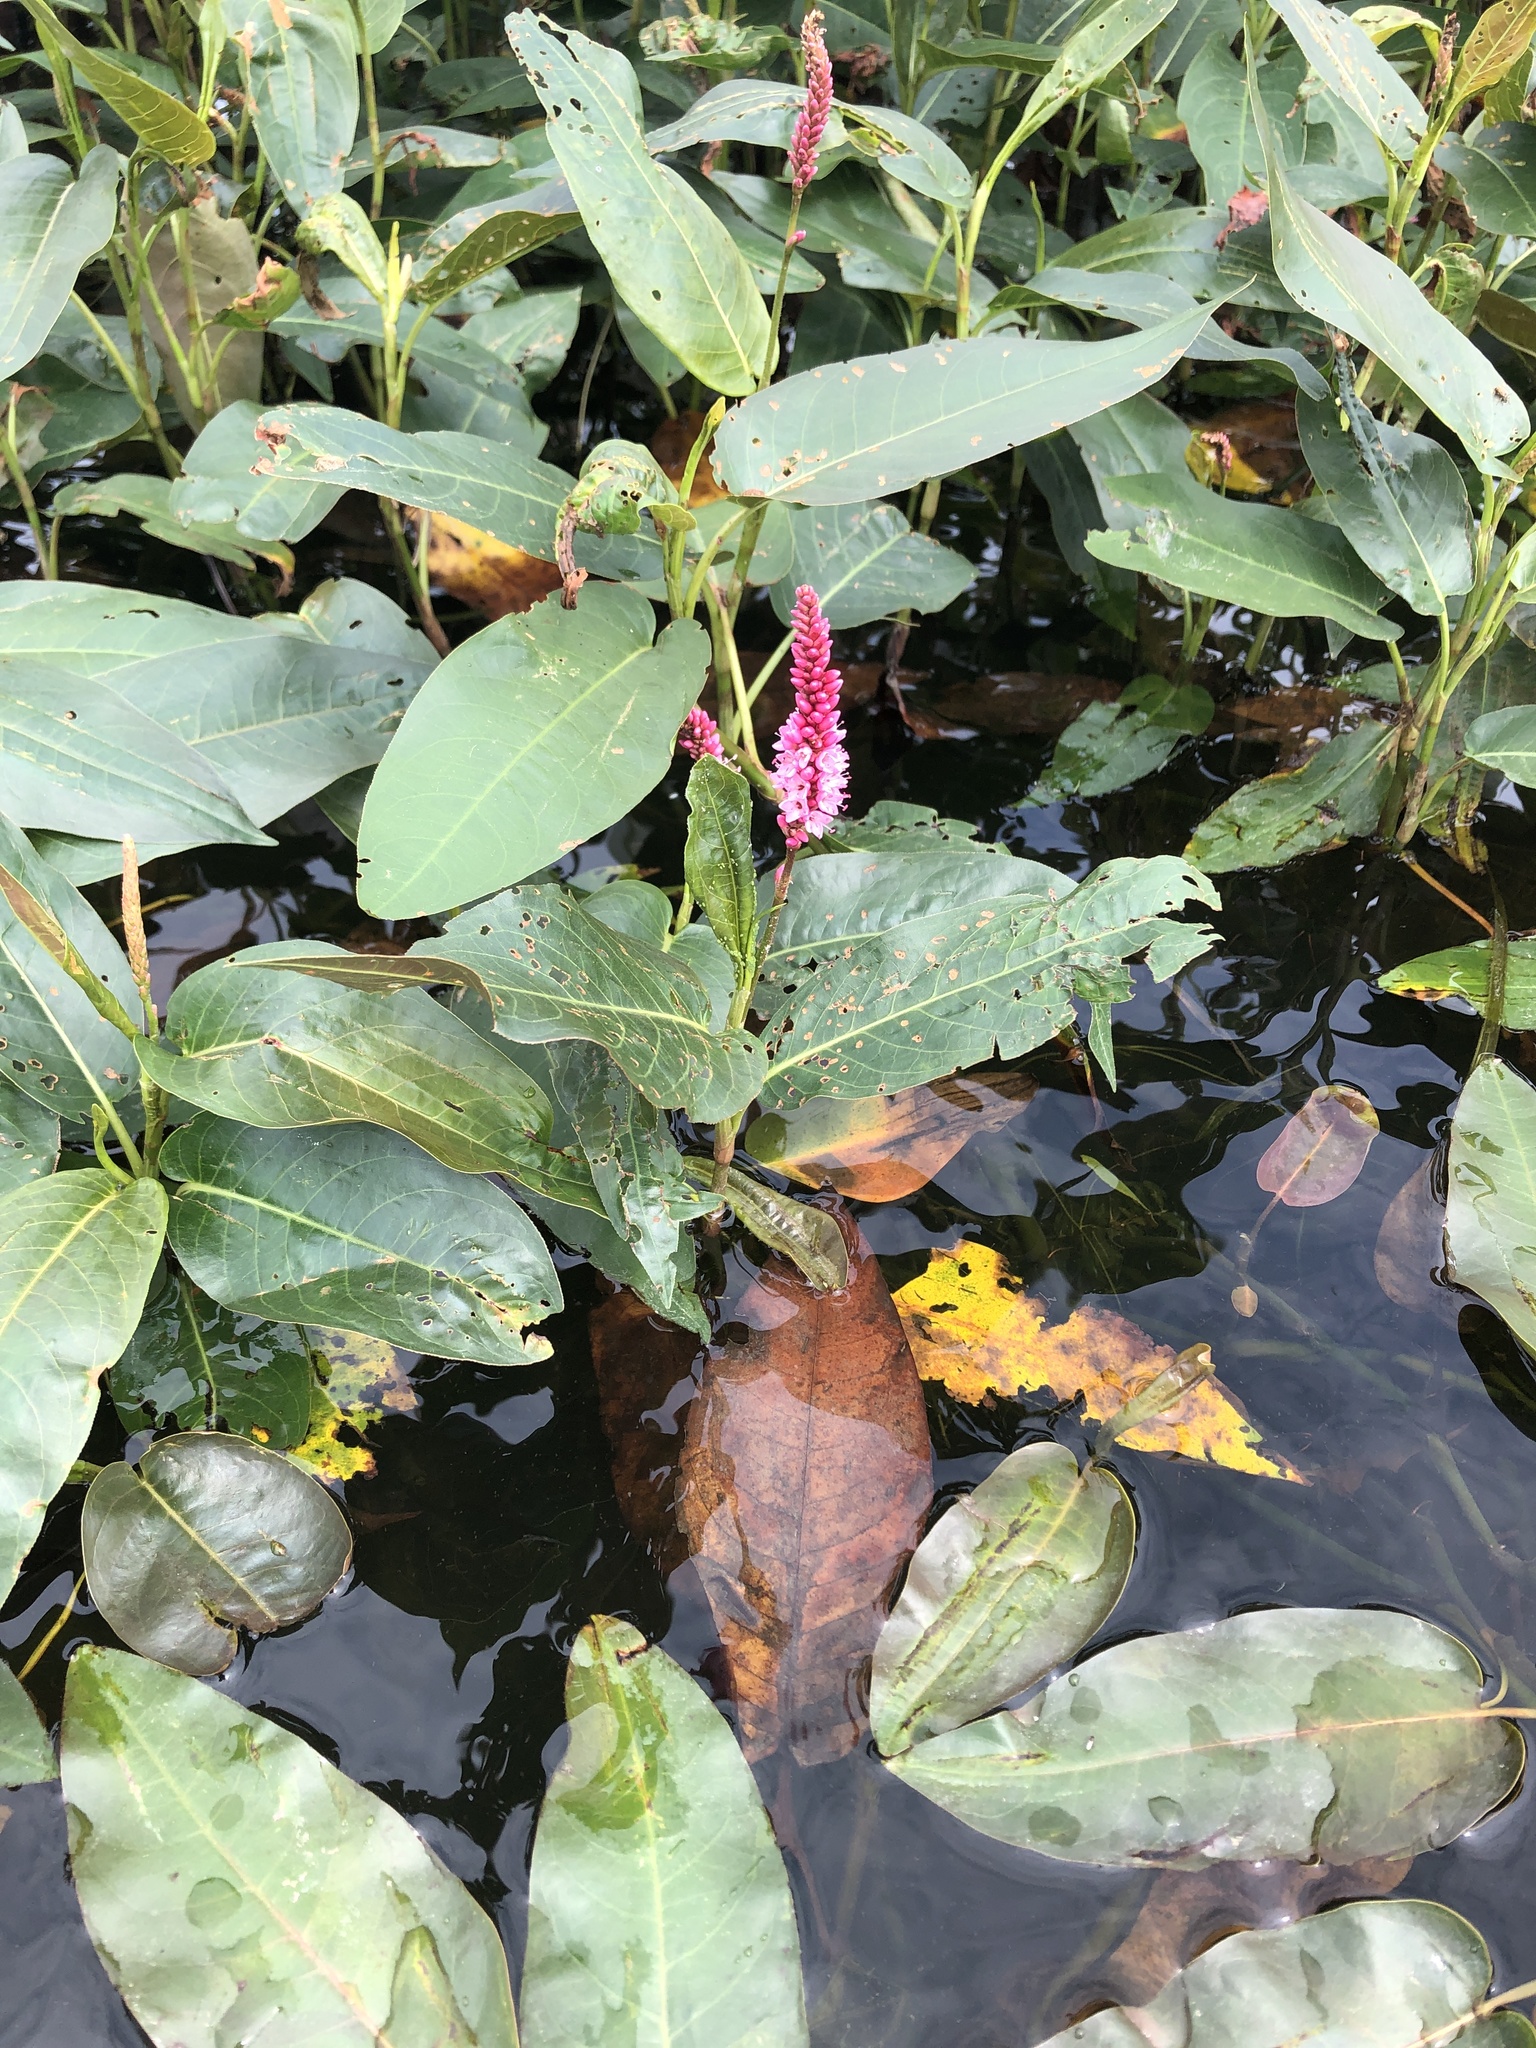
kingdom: Plantae
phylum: Tracheophyta
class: Magnoliopsida
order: Caryophyllales
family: Polygonaceae
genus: Persicaria
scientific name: Persicaria amphibia
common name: Amphibious bistort
